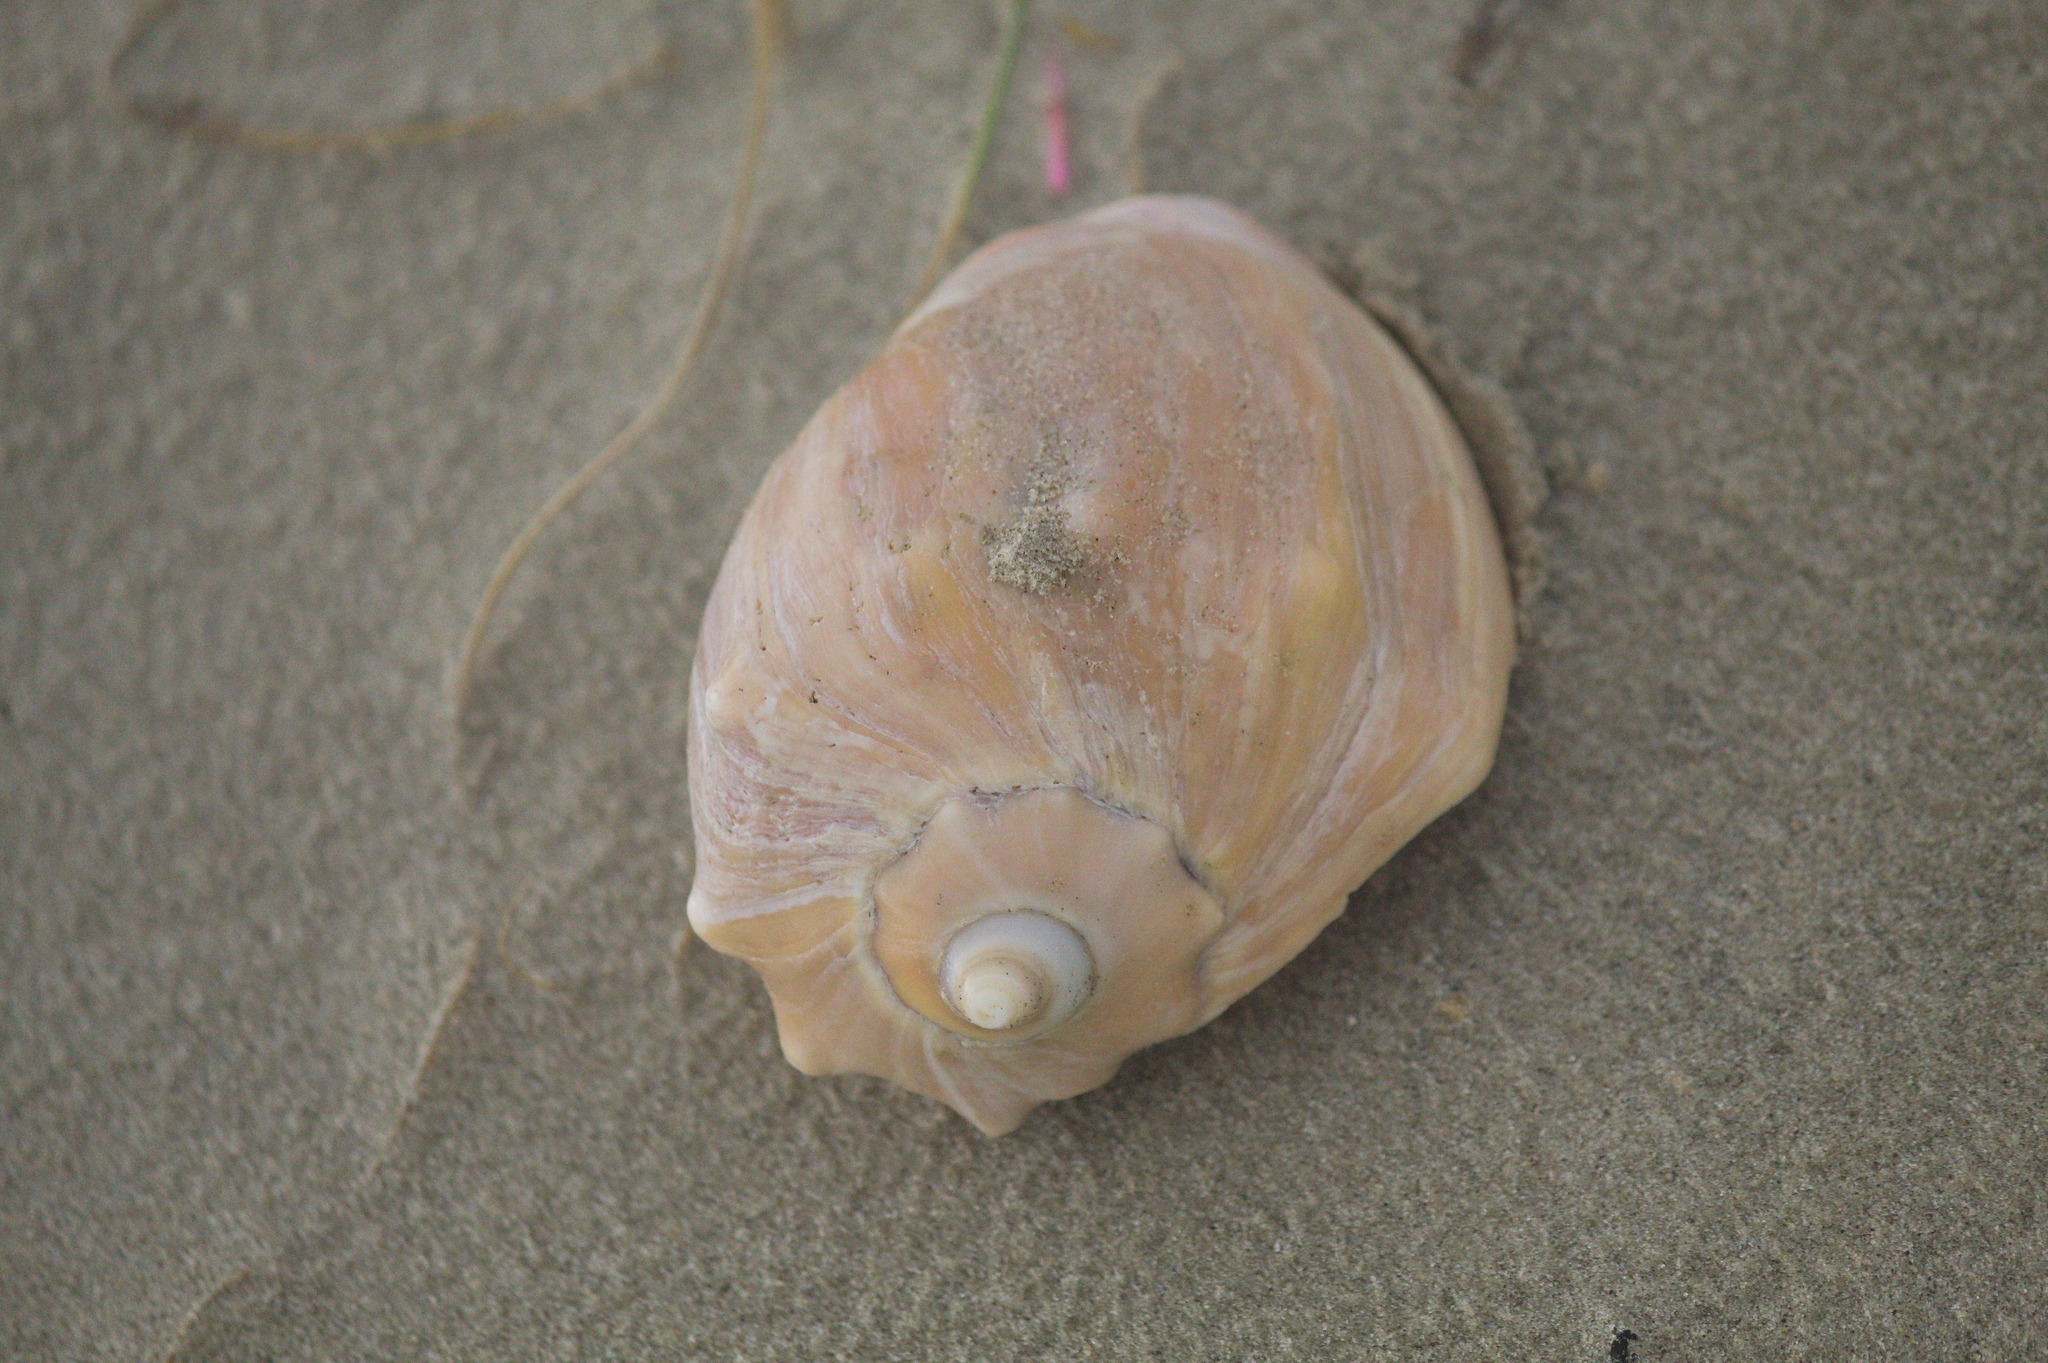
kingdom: Animalia
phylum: Mollusca
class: Gastropoda
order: Neogastropoda
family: Volutidae
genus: Pachycymbiola
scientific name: Pachycymbiola brasiliana
